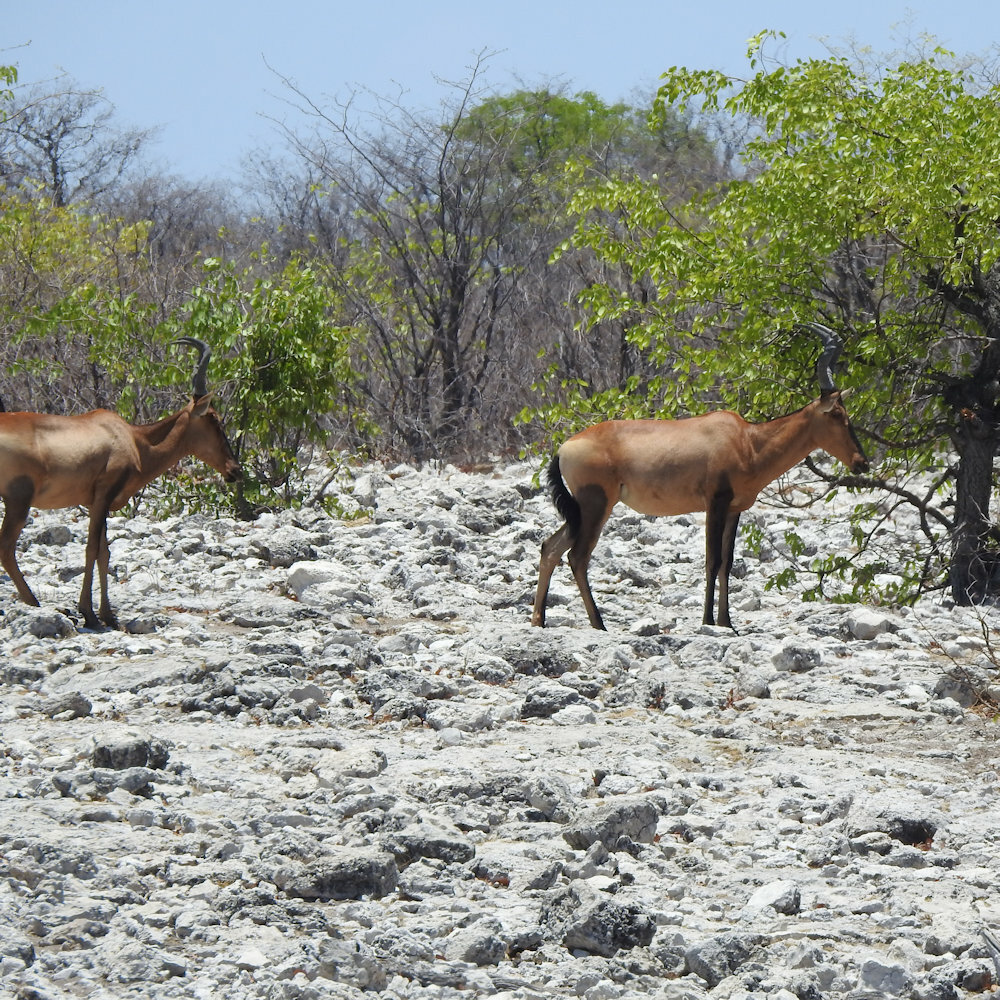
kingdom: Animalia
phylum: Chordata
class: Mammalia
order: Artiodactyla
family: Bovidae
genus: Alcelaphus
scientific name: Alcelaphus caama
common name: Red hartebeest
